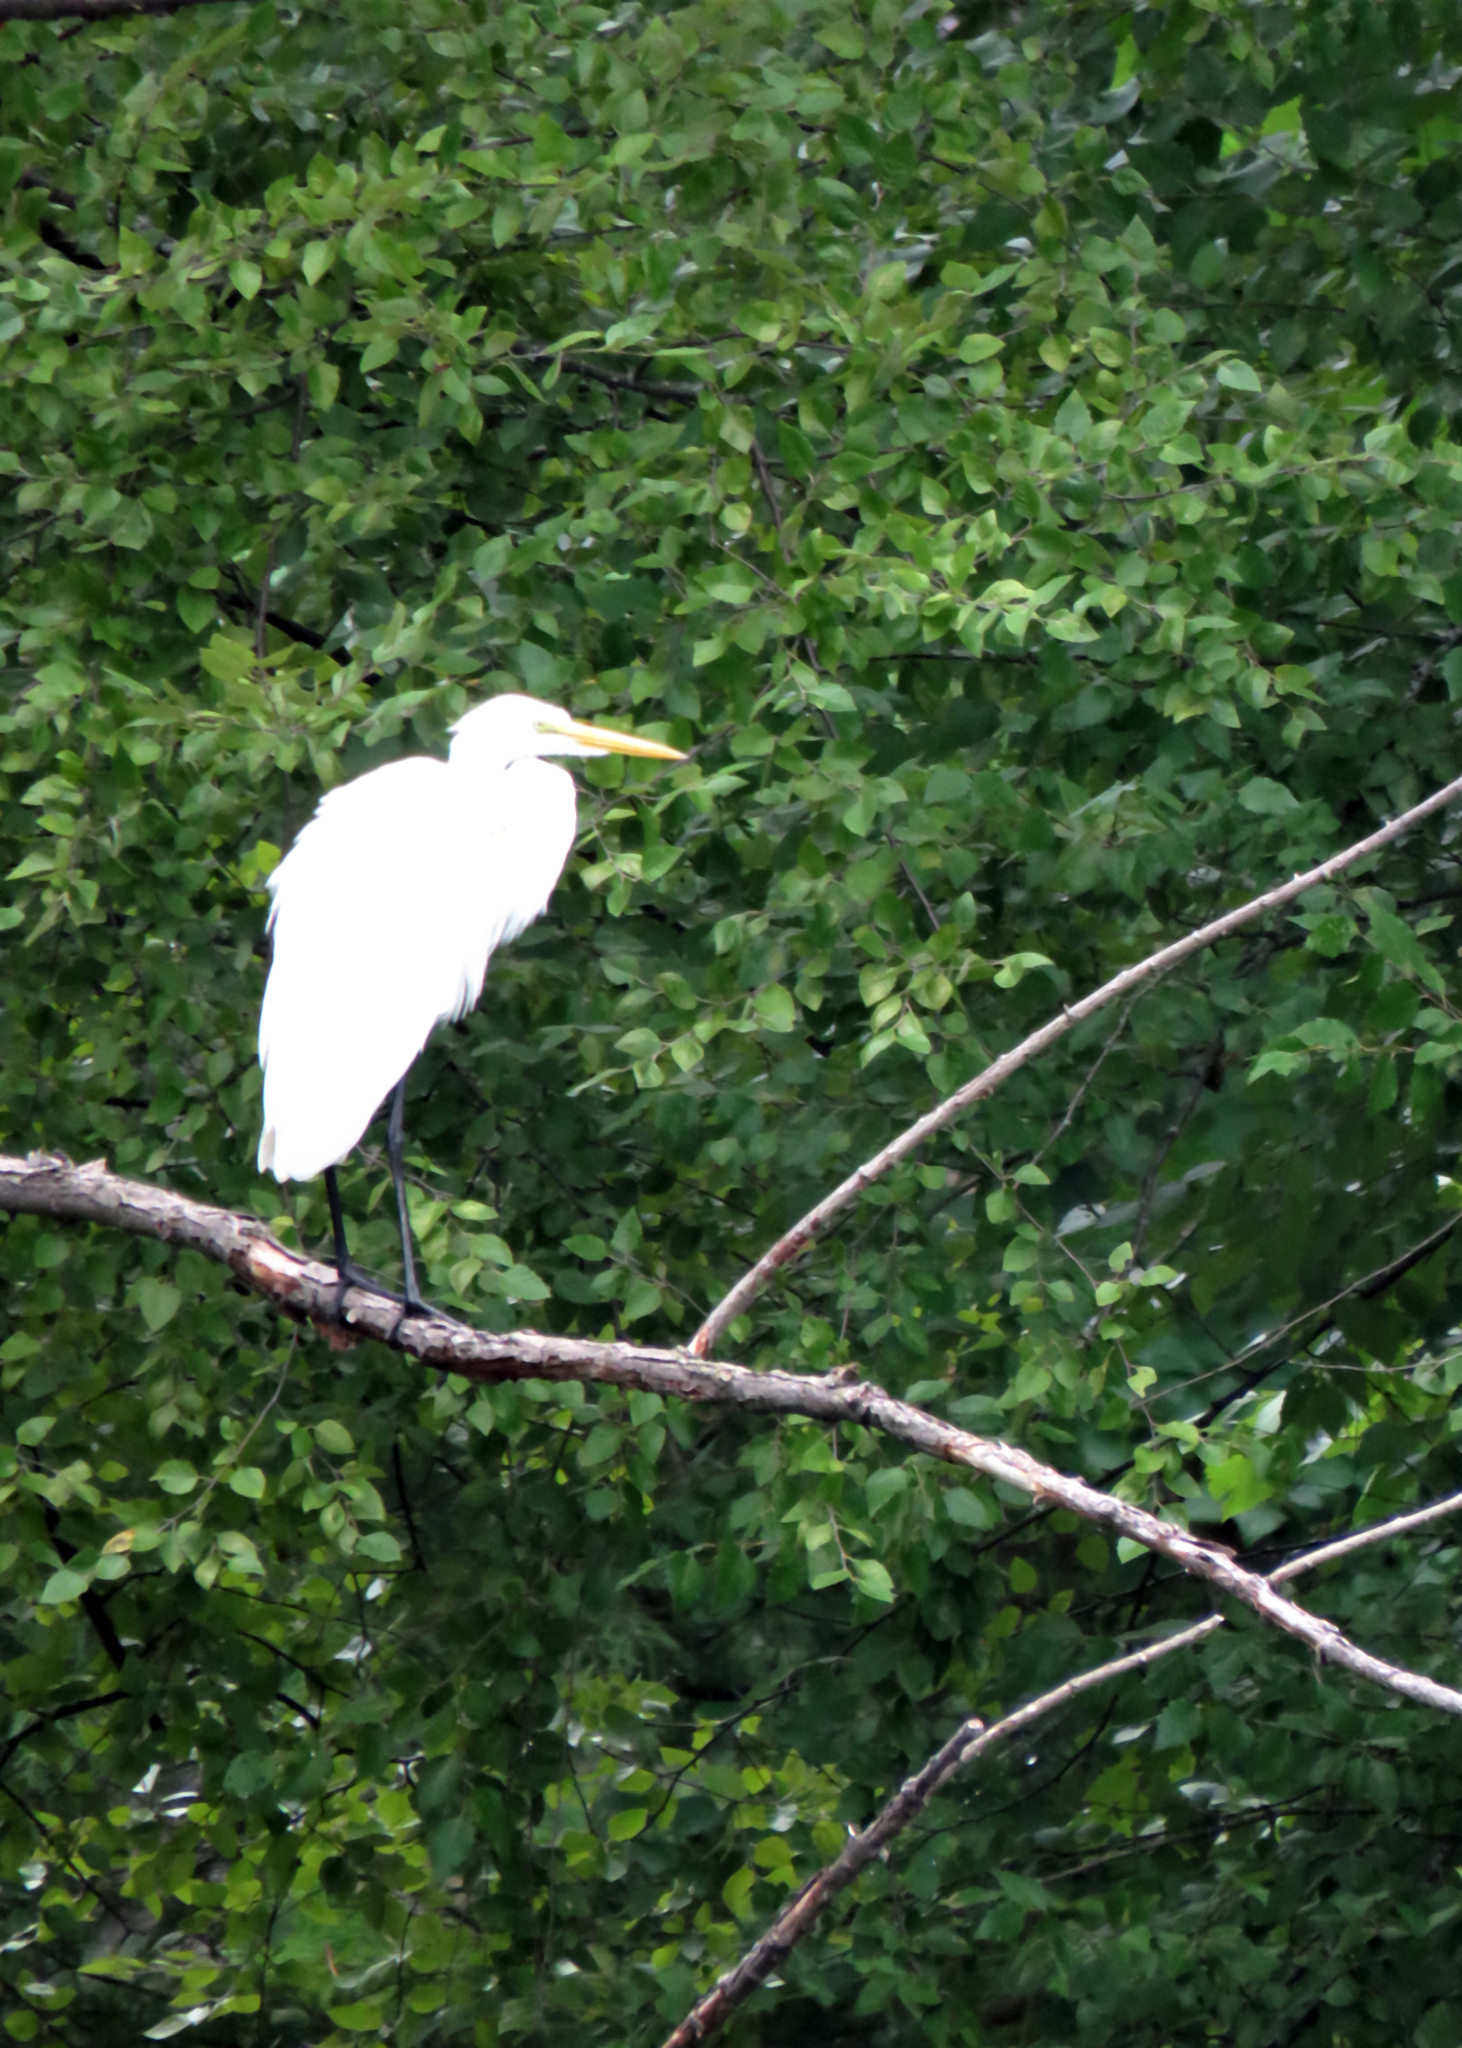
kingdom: Animalia
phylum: Chordata
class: Aves
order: Pelecaniformes
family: Ardeidae
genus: Ardea
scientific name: Ardea alba
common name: Great egret
